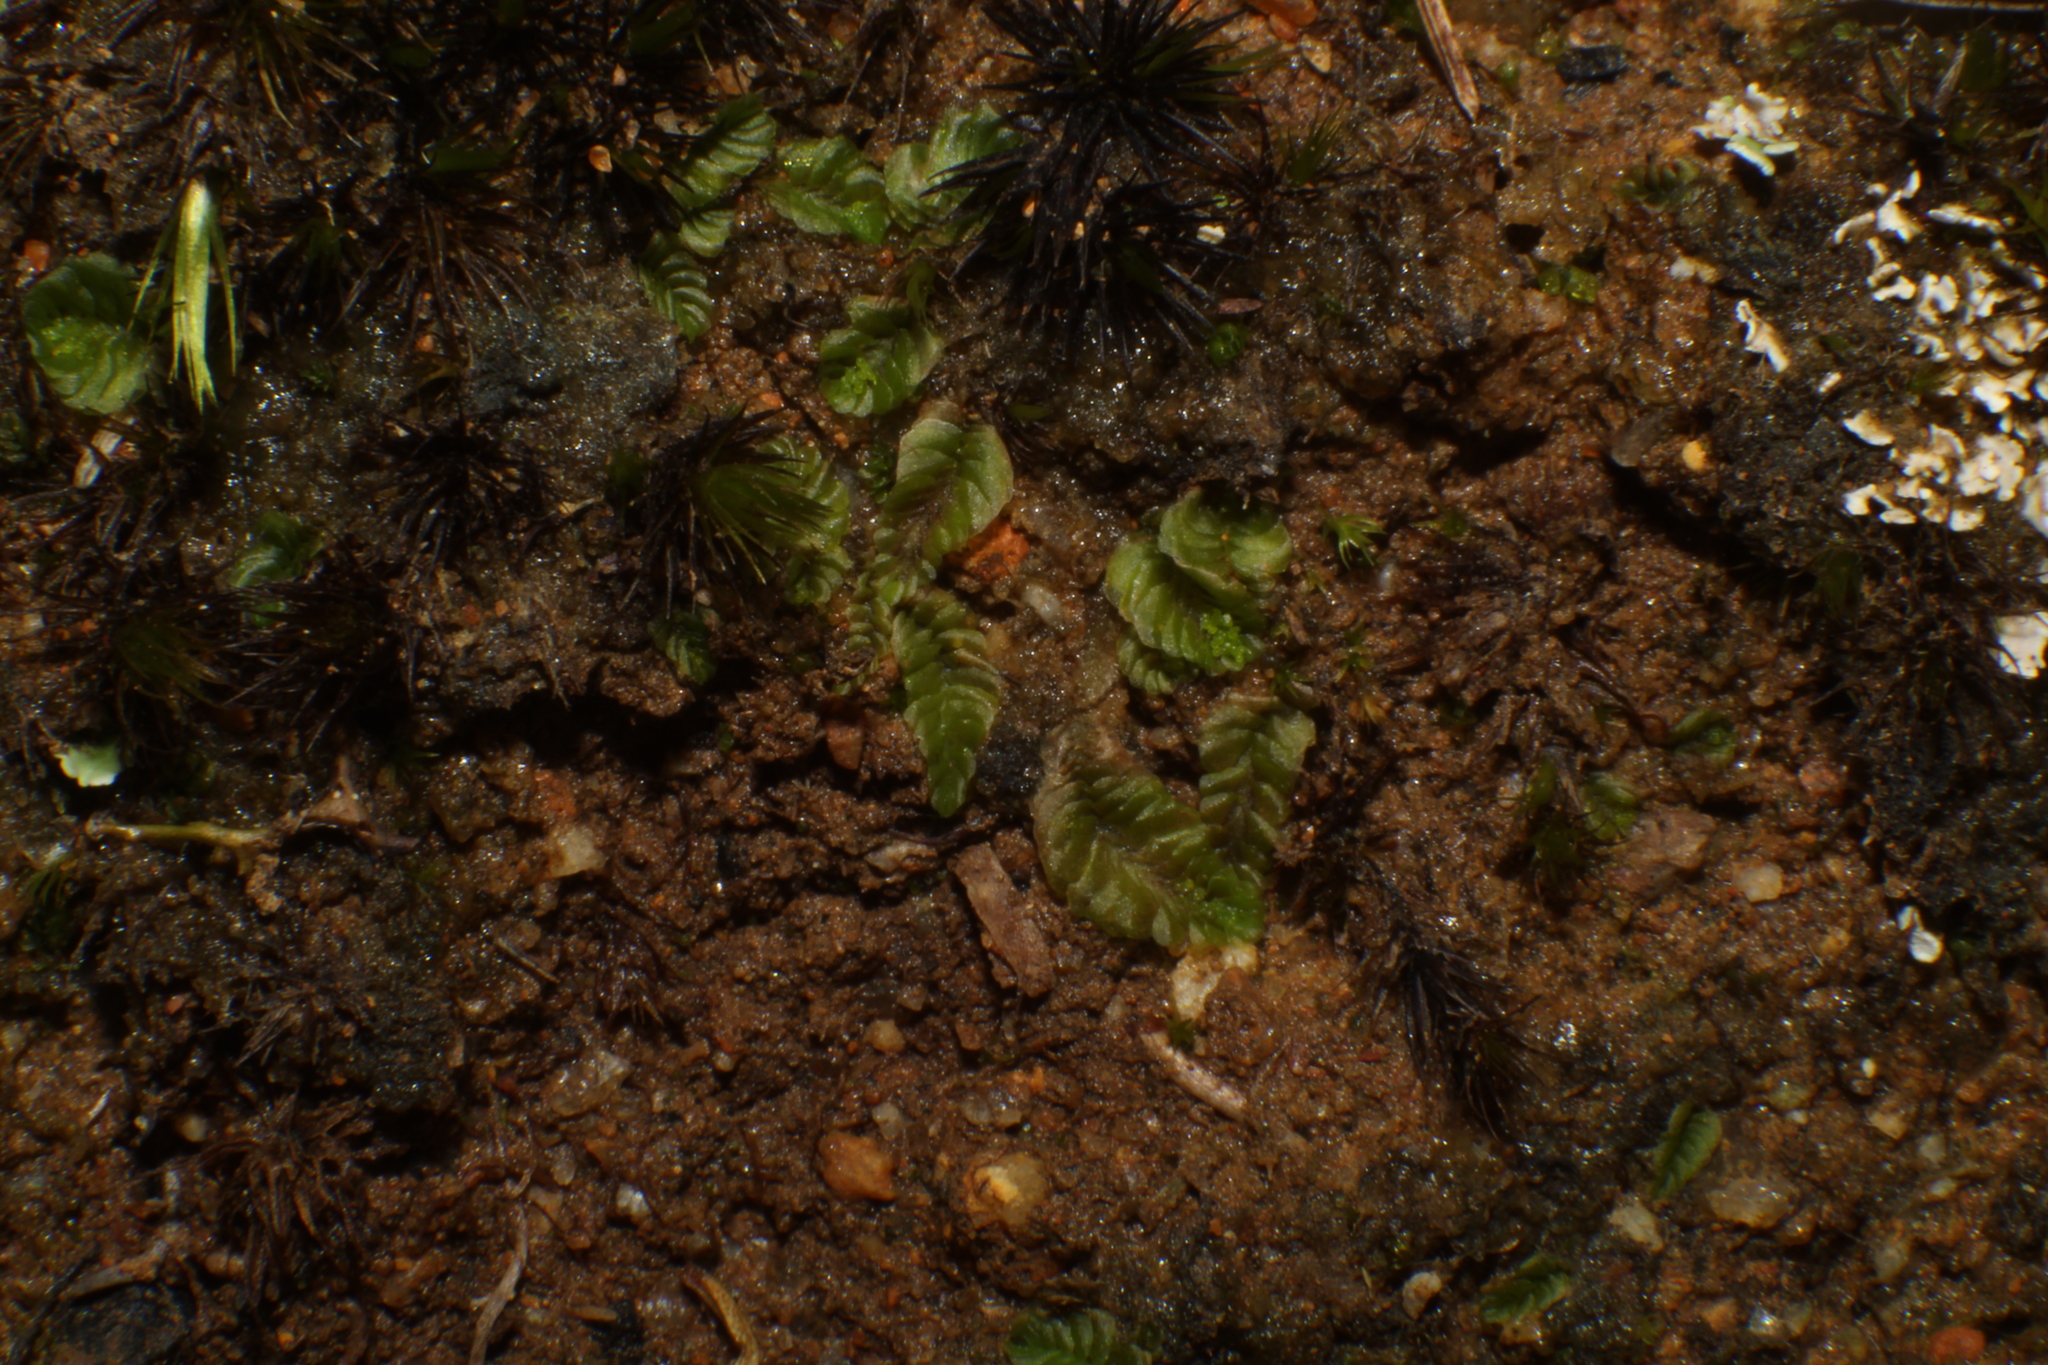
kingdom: Plantae
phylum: Marchantiophyta
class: Jungermanniopsida
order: Jungermanniales
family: Acrobolbaceae
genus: Lethocolea
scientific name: Lethocolea pansa
